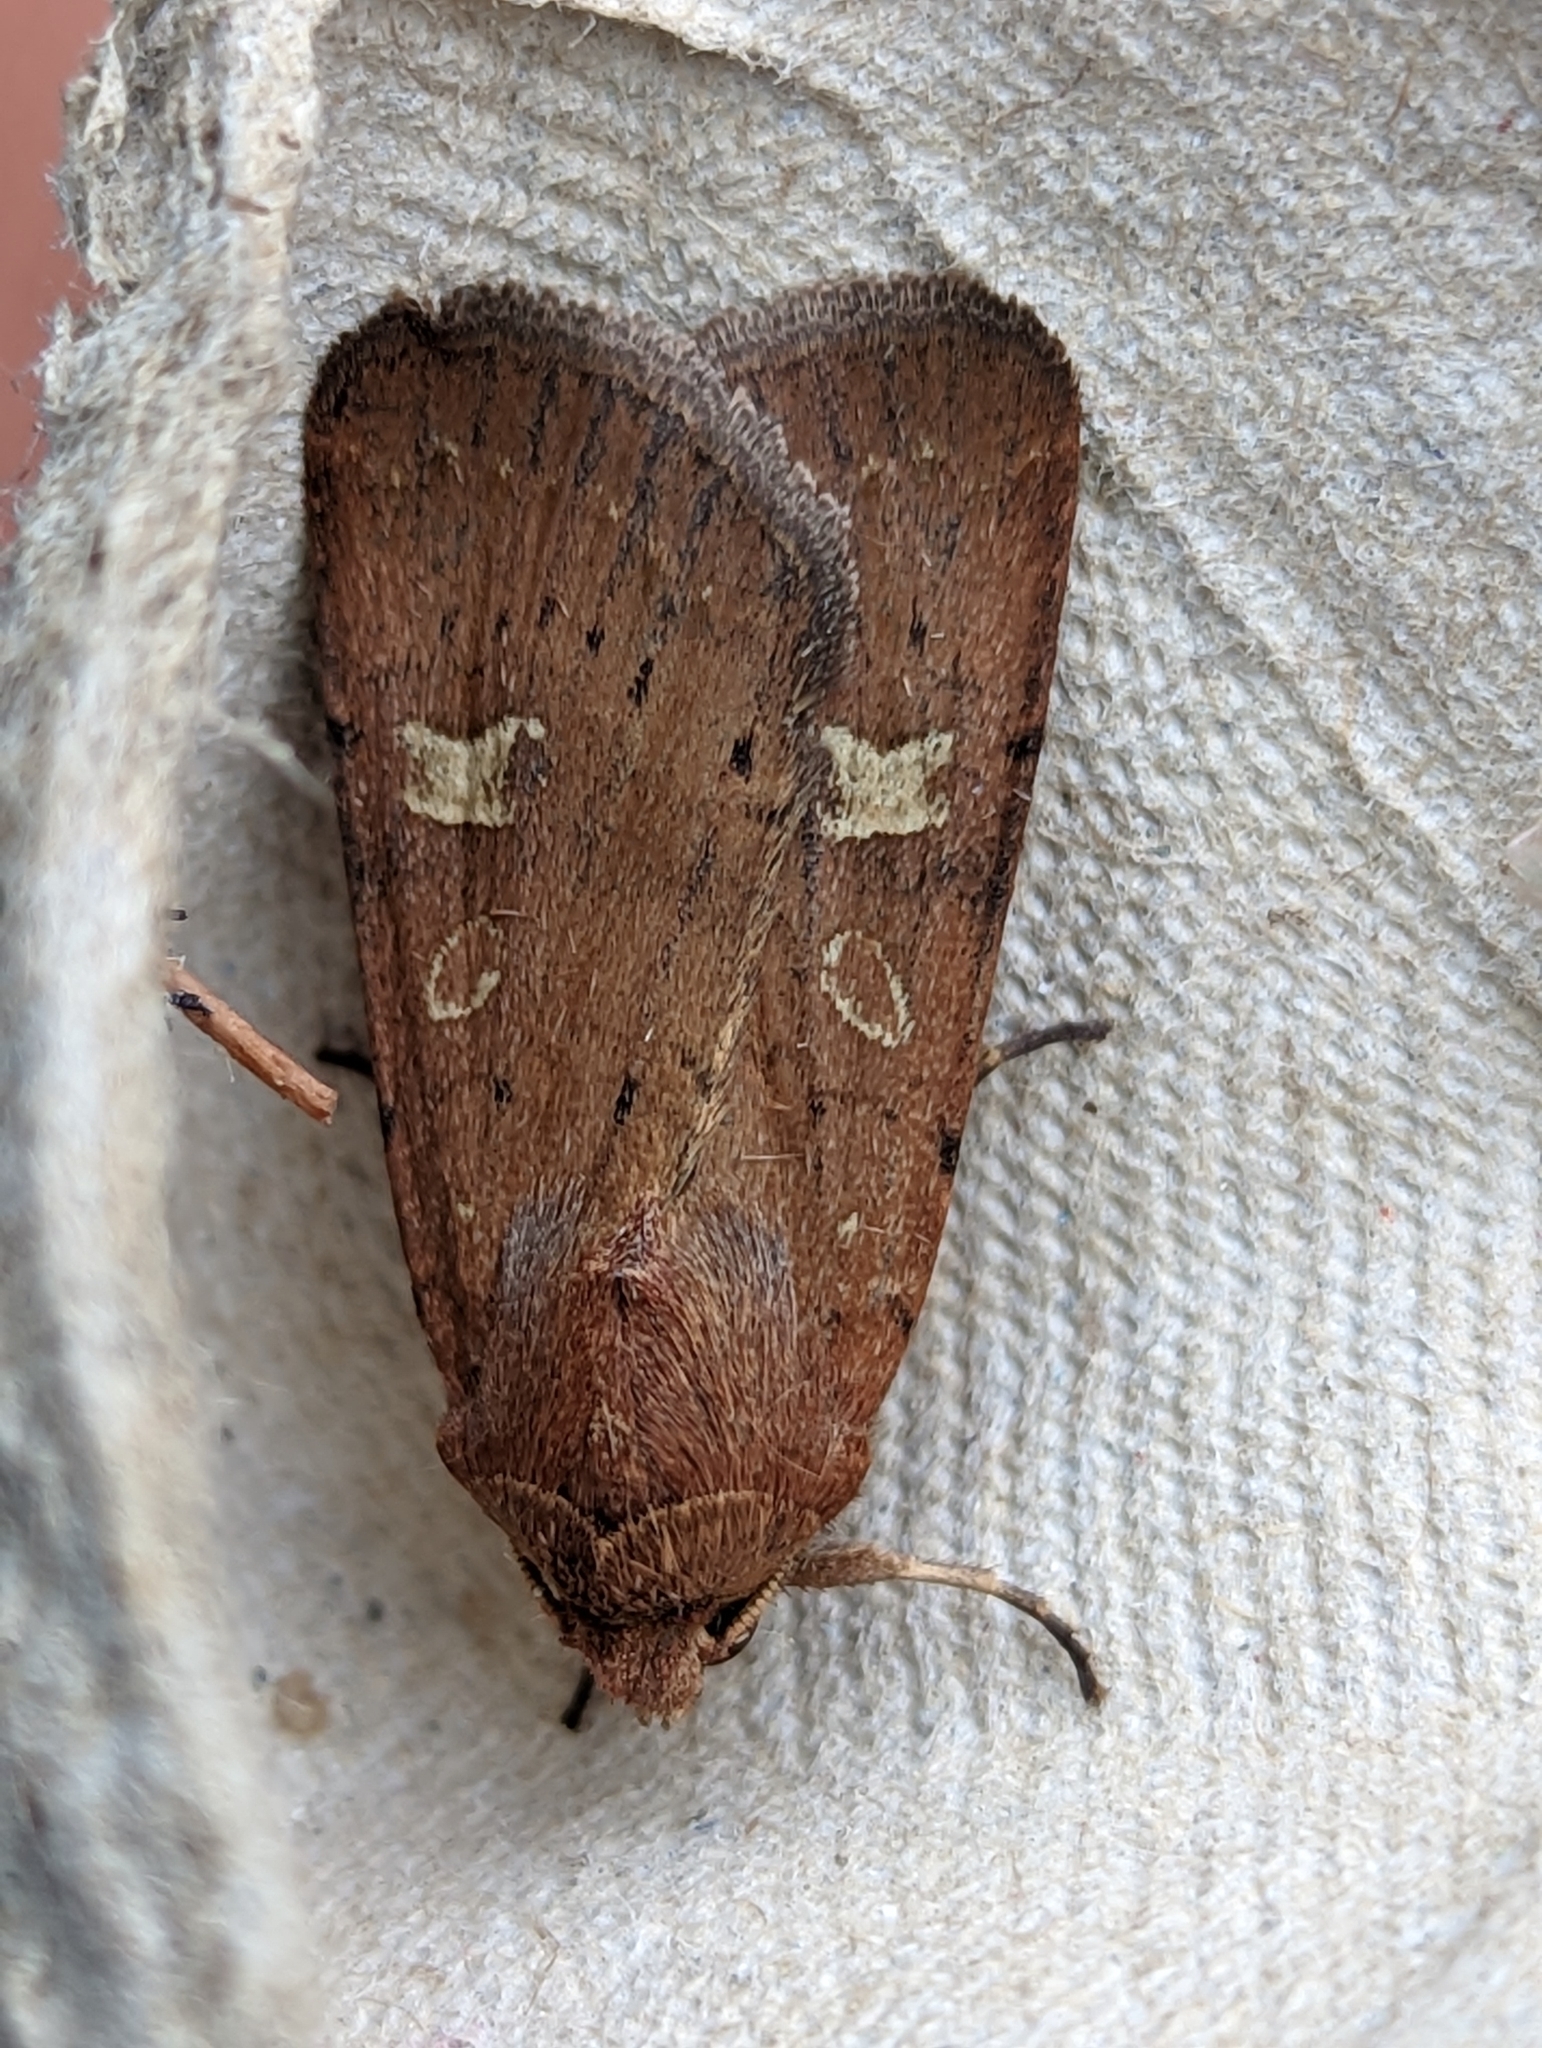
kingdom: Animalia
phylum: Arthropoda
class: Insecta
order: Lepidoptera
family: Noctuidae
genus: Xestia
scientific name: Xestia xanthographa
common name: Square-spot rustic
